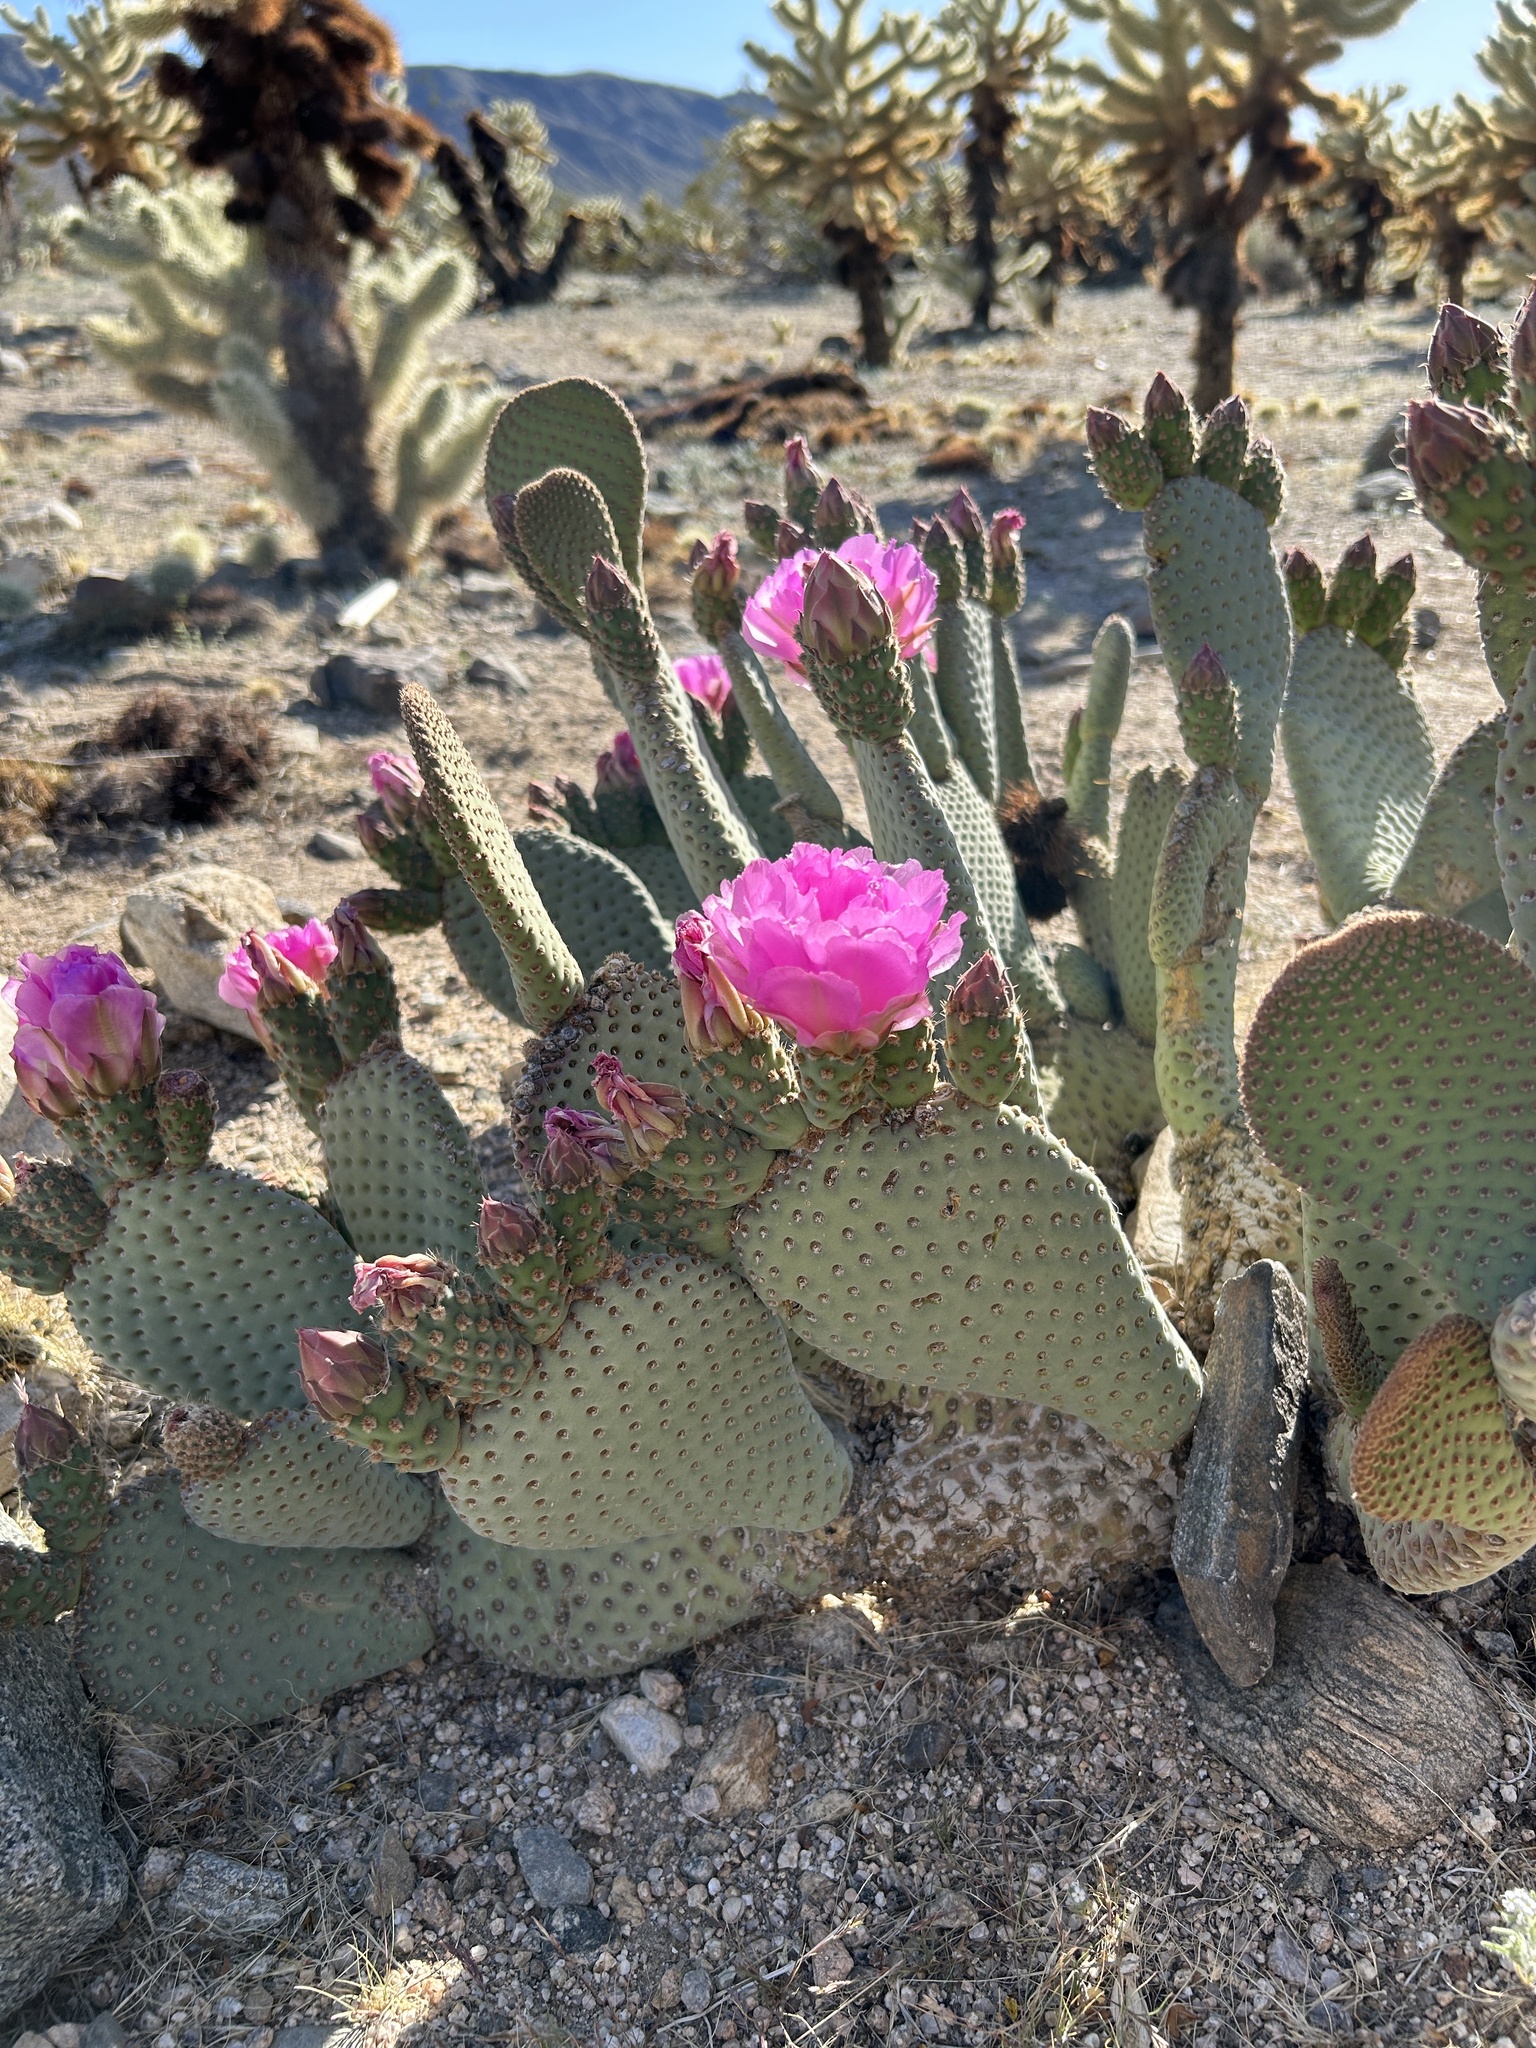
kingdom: Plantae
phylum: Tracheophyta
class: Magnoliopsida
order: Caryophyllales
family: Cactaceae
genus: Opuntia
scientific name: Opuntia basilaris
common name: Beavertail prickly-pear
